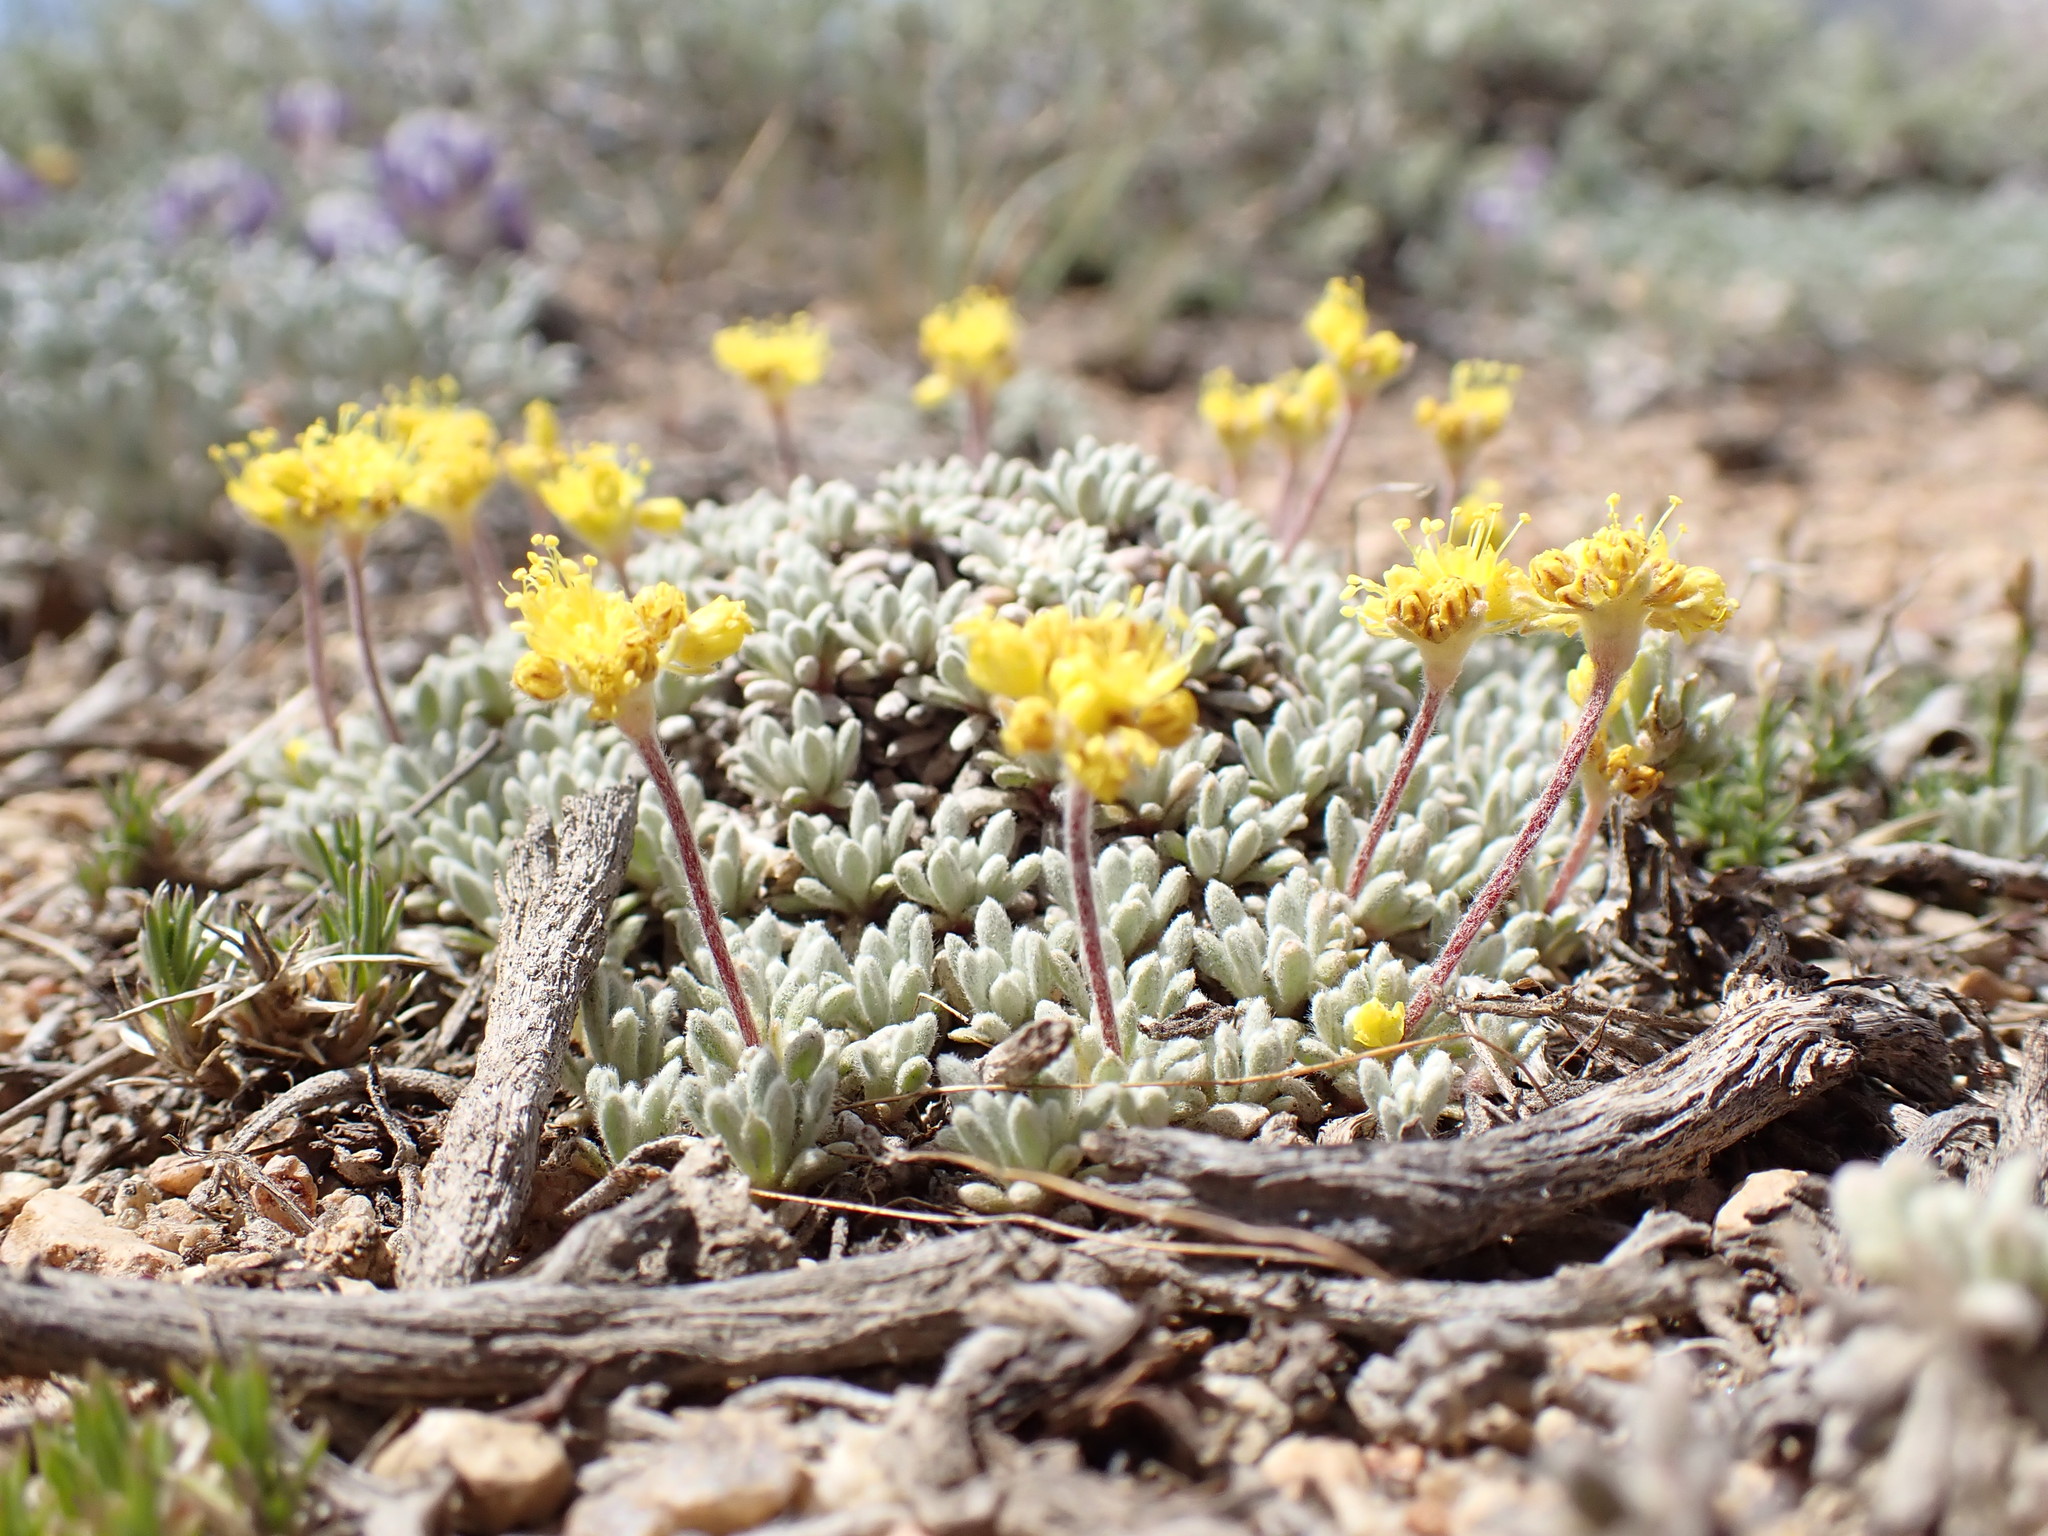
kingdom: Plantae
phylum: Tracheophyta
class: Magnoliopsida
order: Caryophyllales
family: Polygonaceae
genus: Eriogonum
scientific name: Eriogonum caespitosum
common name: Matted wild buckwheat
